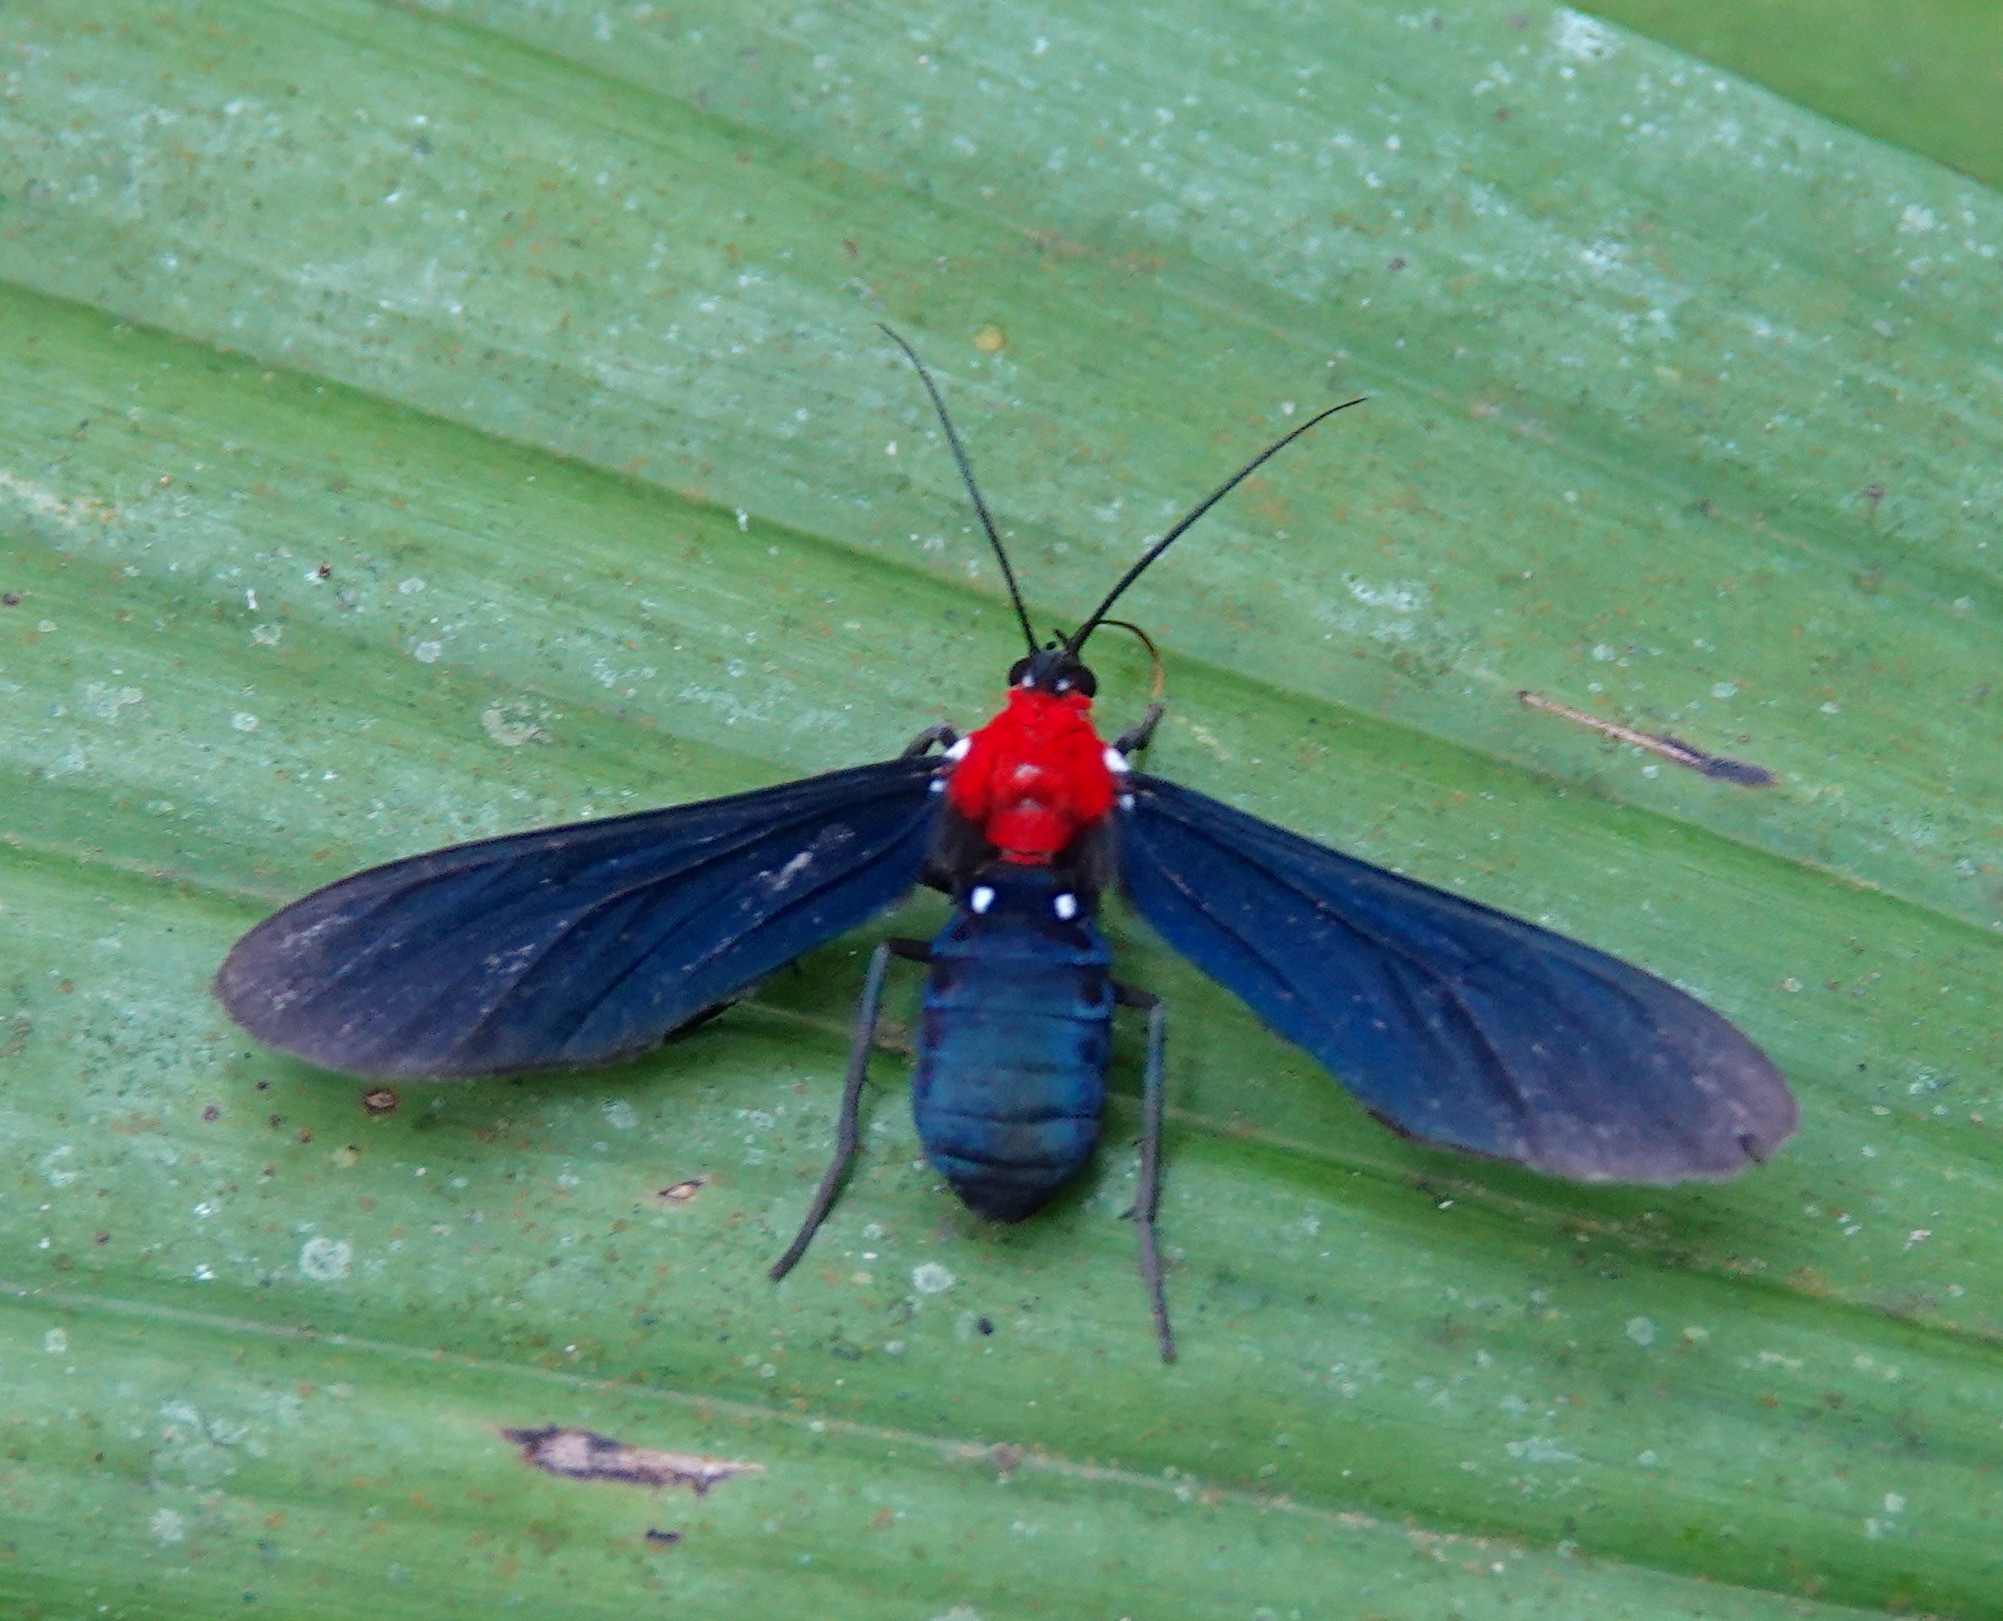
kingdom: Animalia
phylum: Arthropoda
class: Insecta
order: Lepidoptera
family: Erebidae
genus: Psoloptera
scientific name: Psoloptera thoracica
